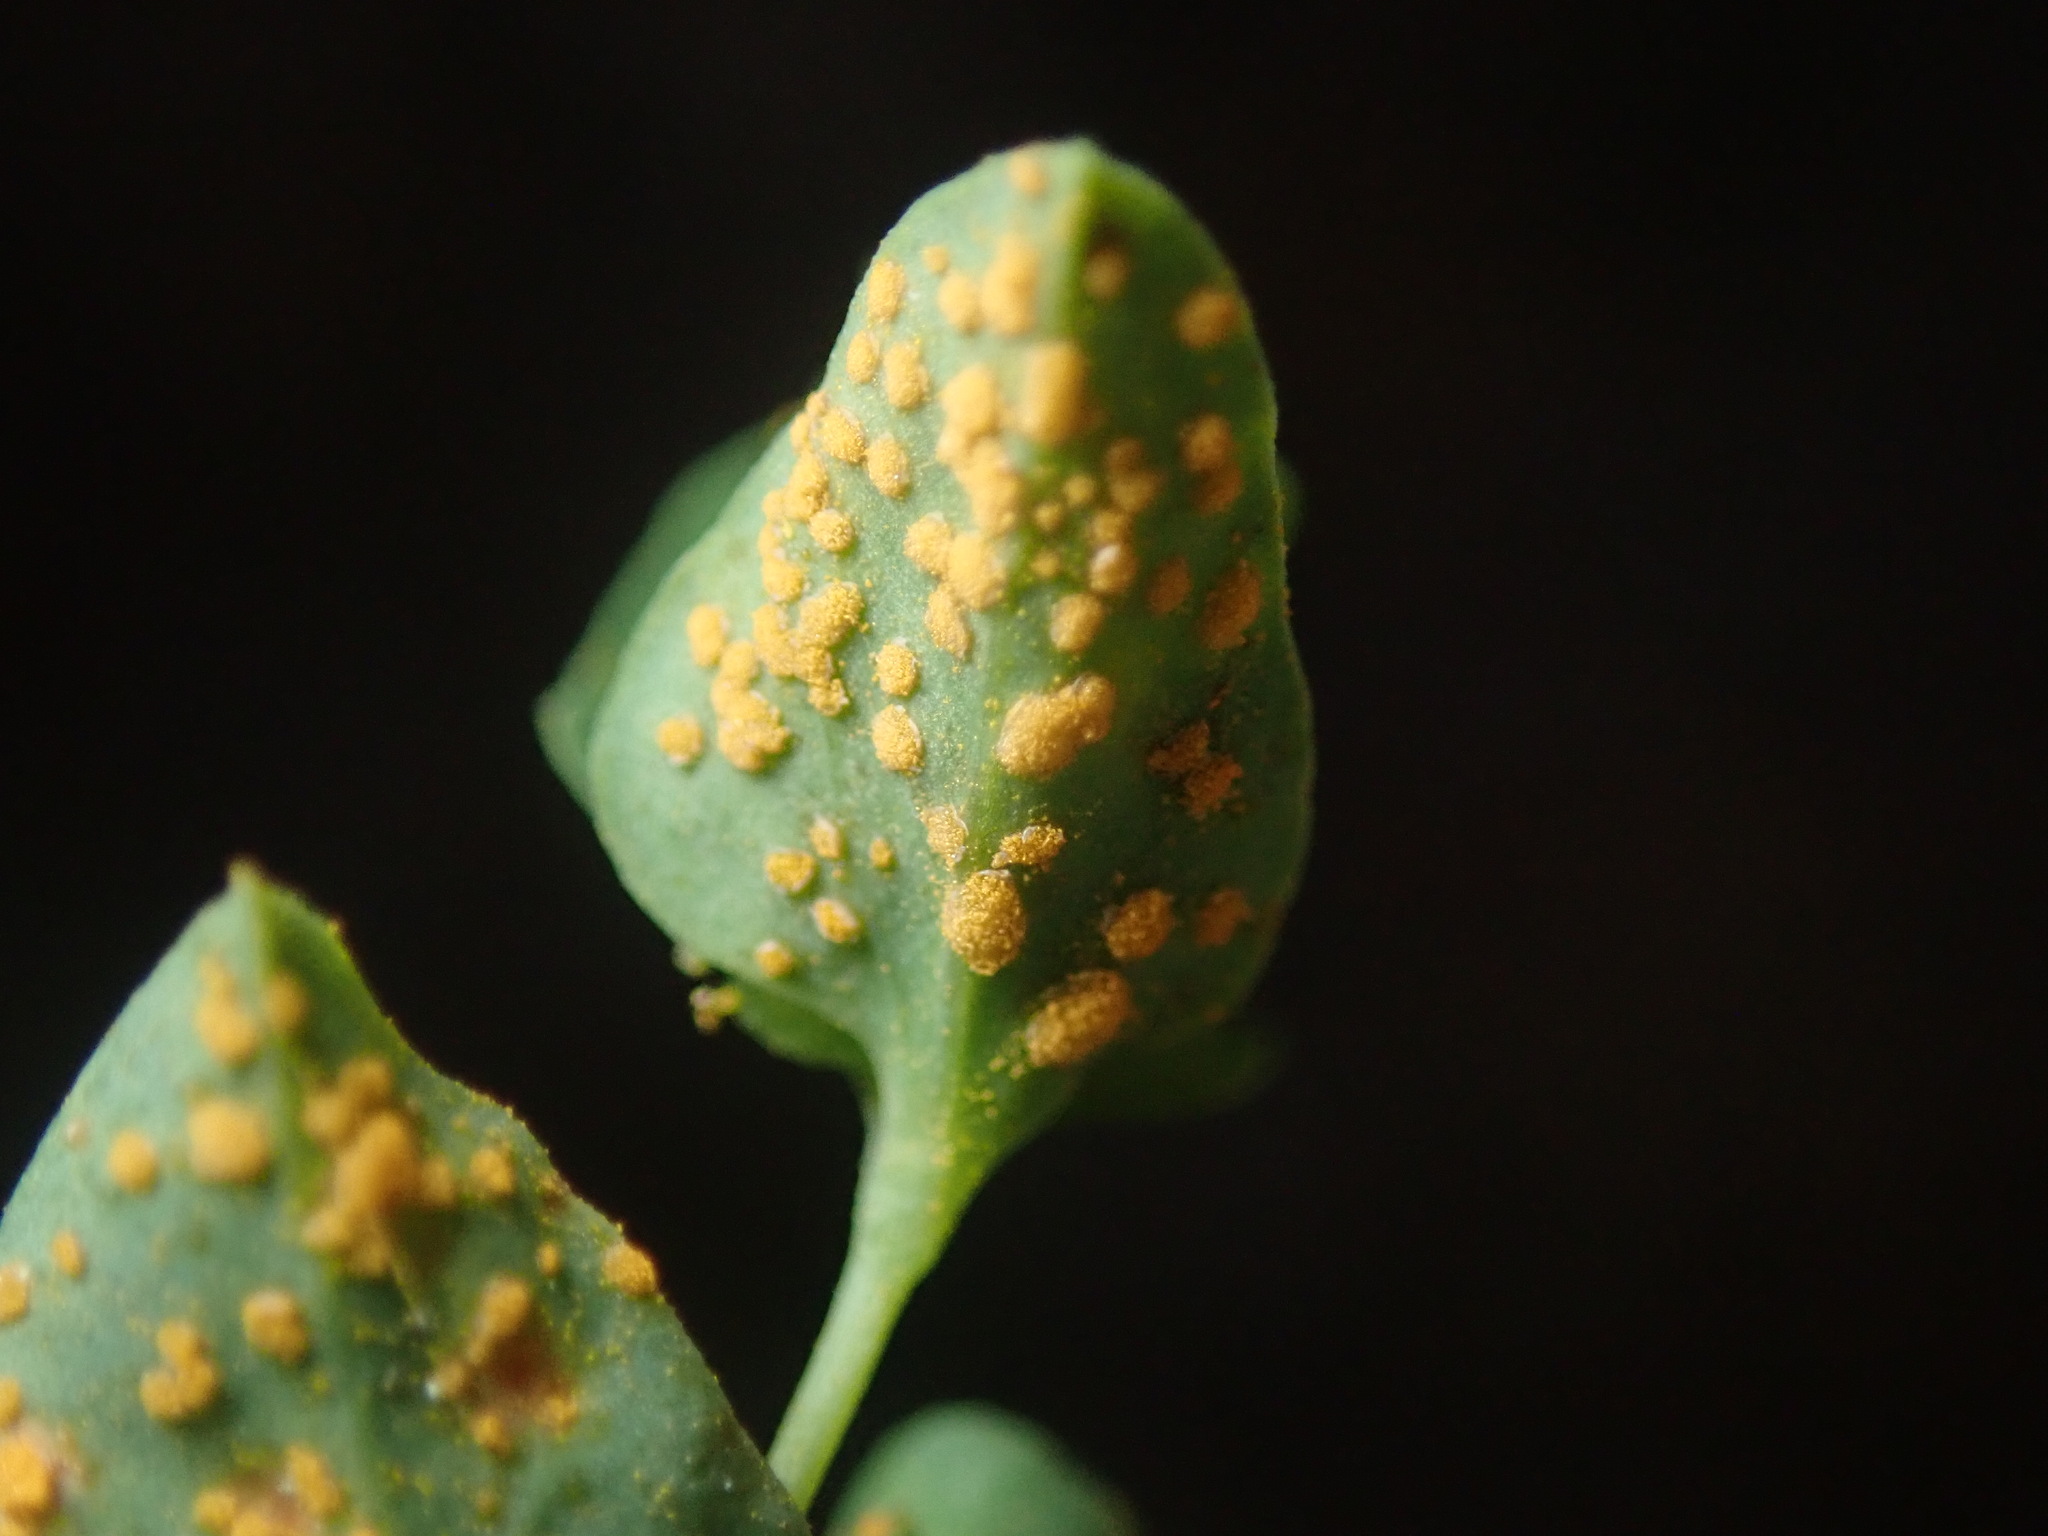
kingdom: Fungi
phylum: Basidiomycota
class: Pucciniomycetes
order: Pucciniales
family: Melampsoraceae
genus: Melampsora
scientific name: Melampsora euphorbiae
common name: Spurge rust
